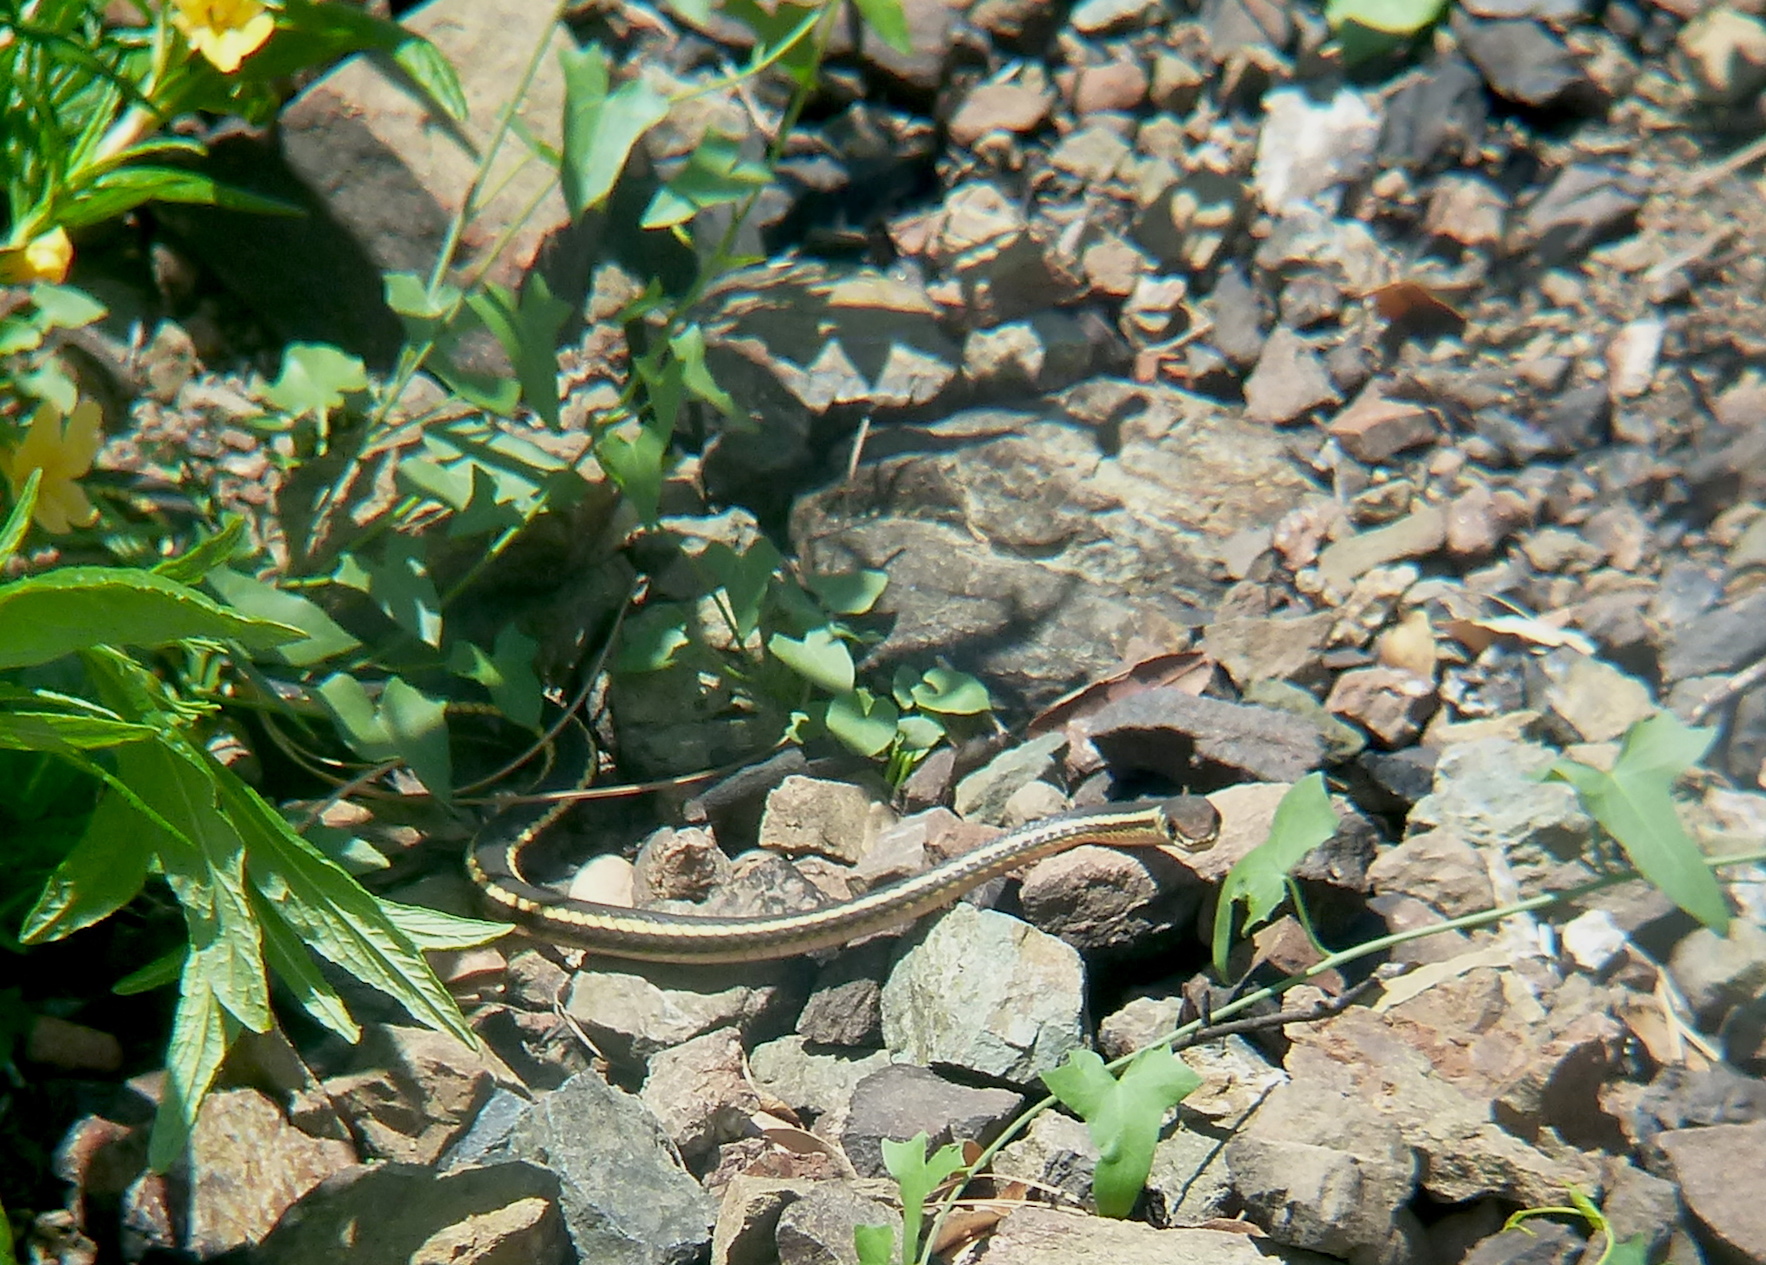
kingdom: Animalia
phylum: Chordata
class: Squamata
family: Colubridae
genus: Masticophis
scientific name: Masticophis lateralis
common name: Striped racer
